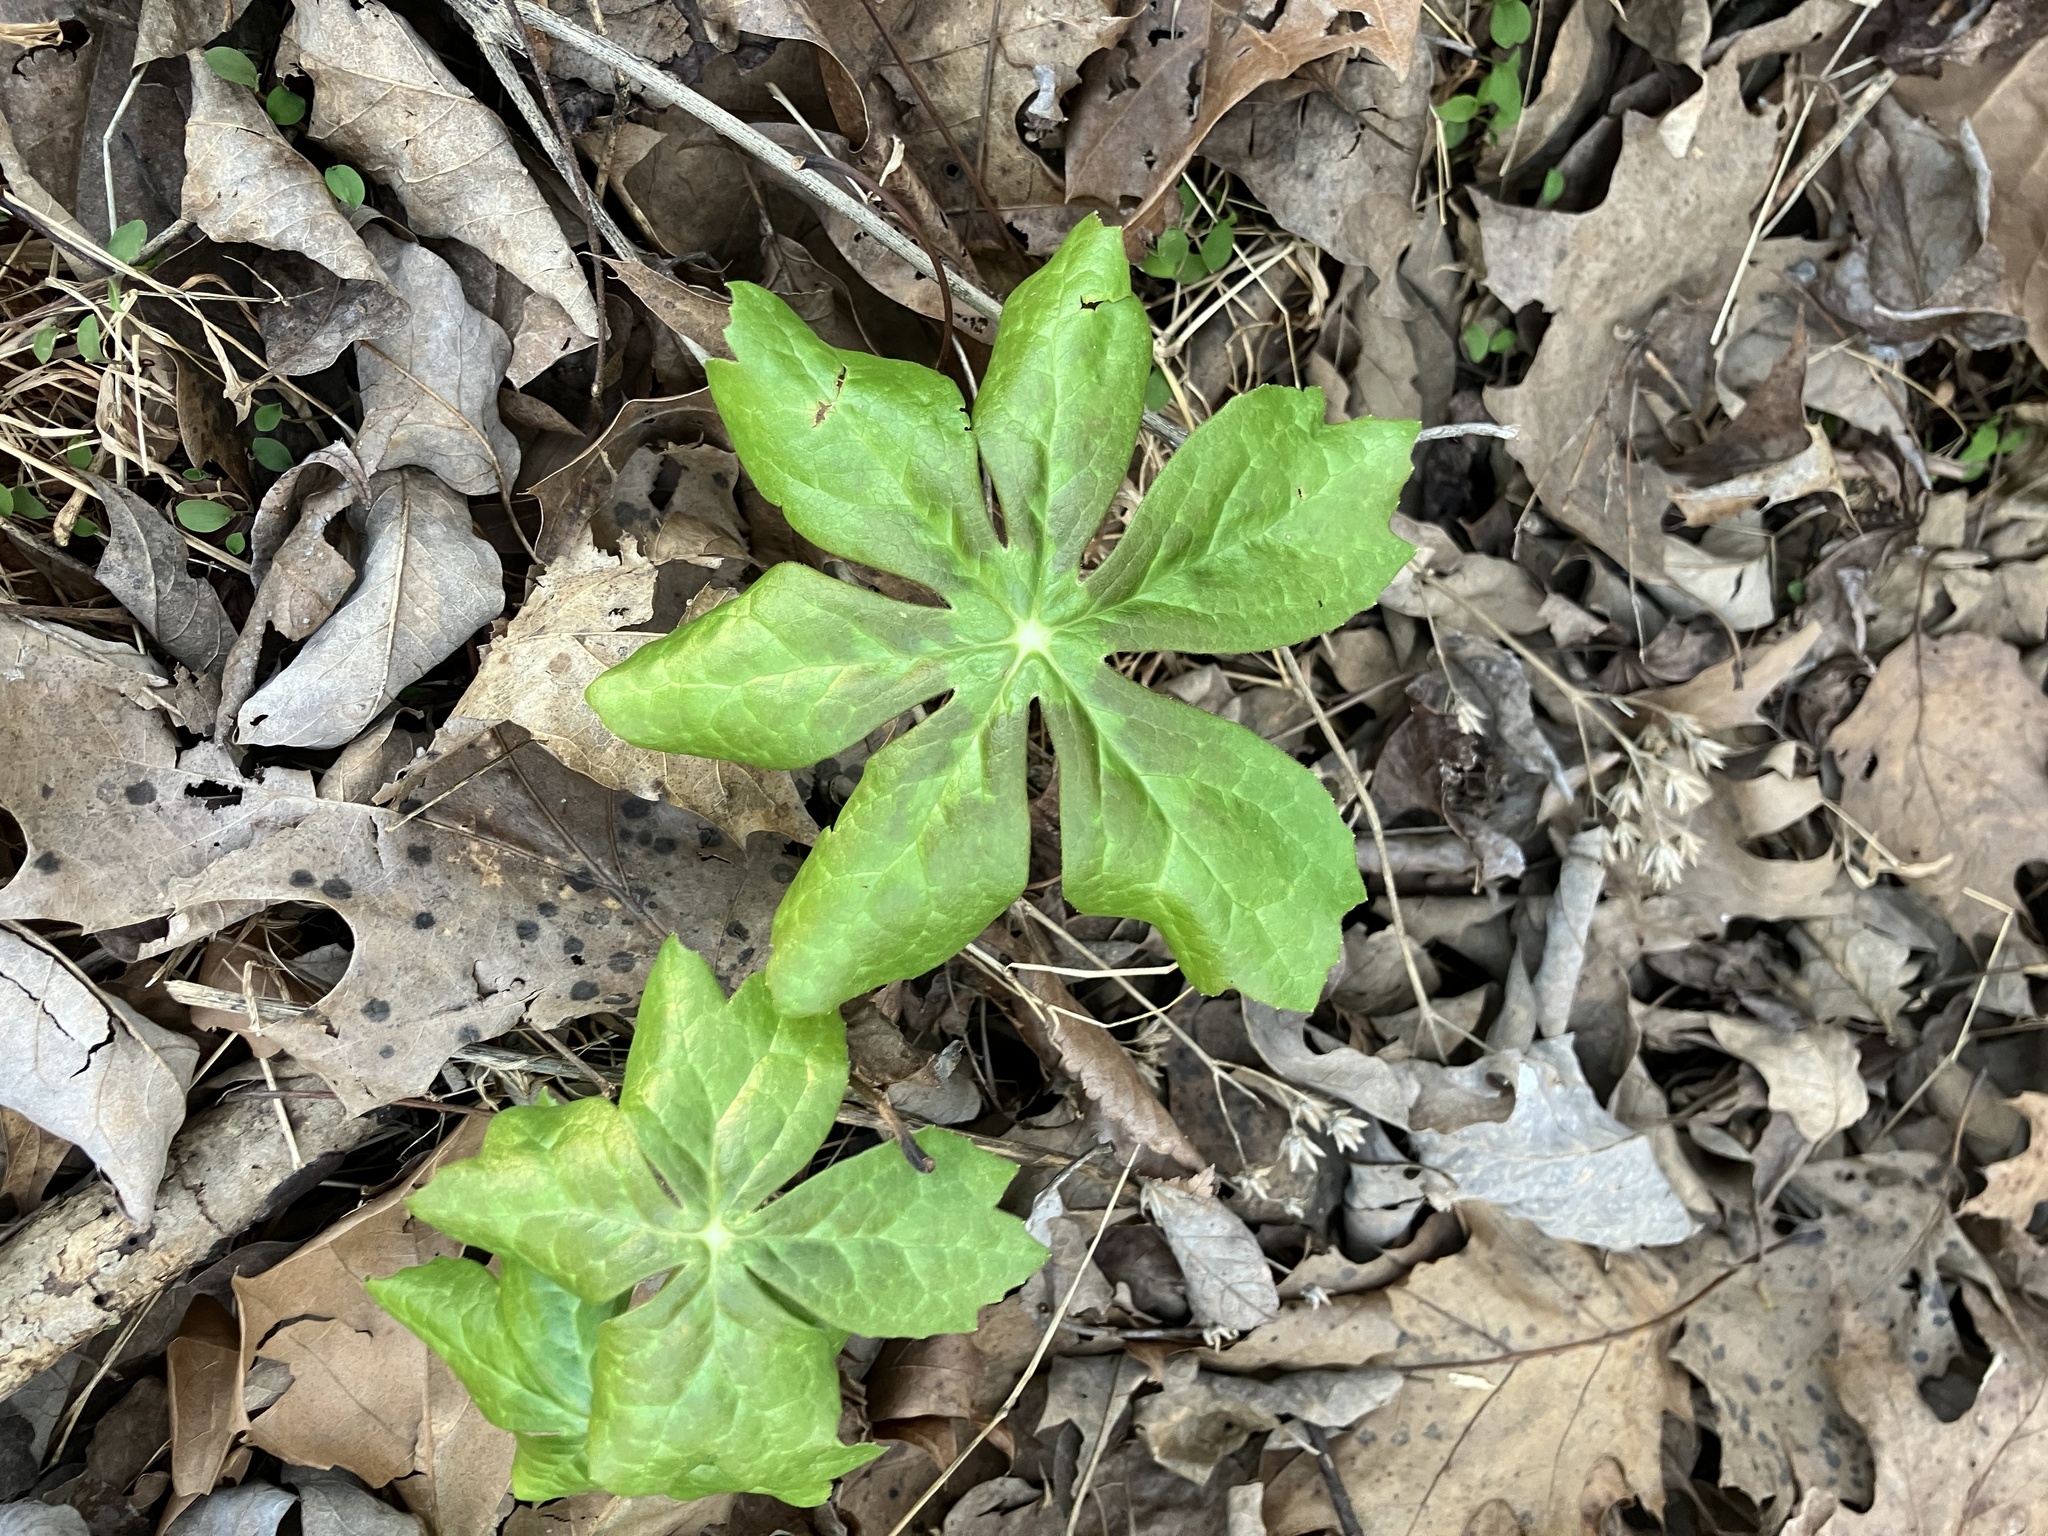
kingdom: Plantae
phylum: Tracheophyta
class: Magnoliopsida
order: Ranunculales
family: Berberidaceae
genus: Podophyllum
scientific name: Podophyllum peltatum
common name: Wild mandrake
